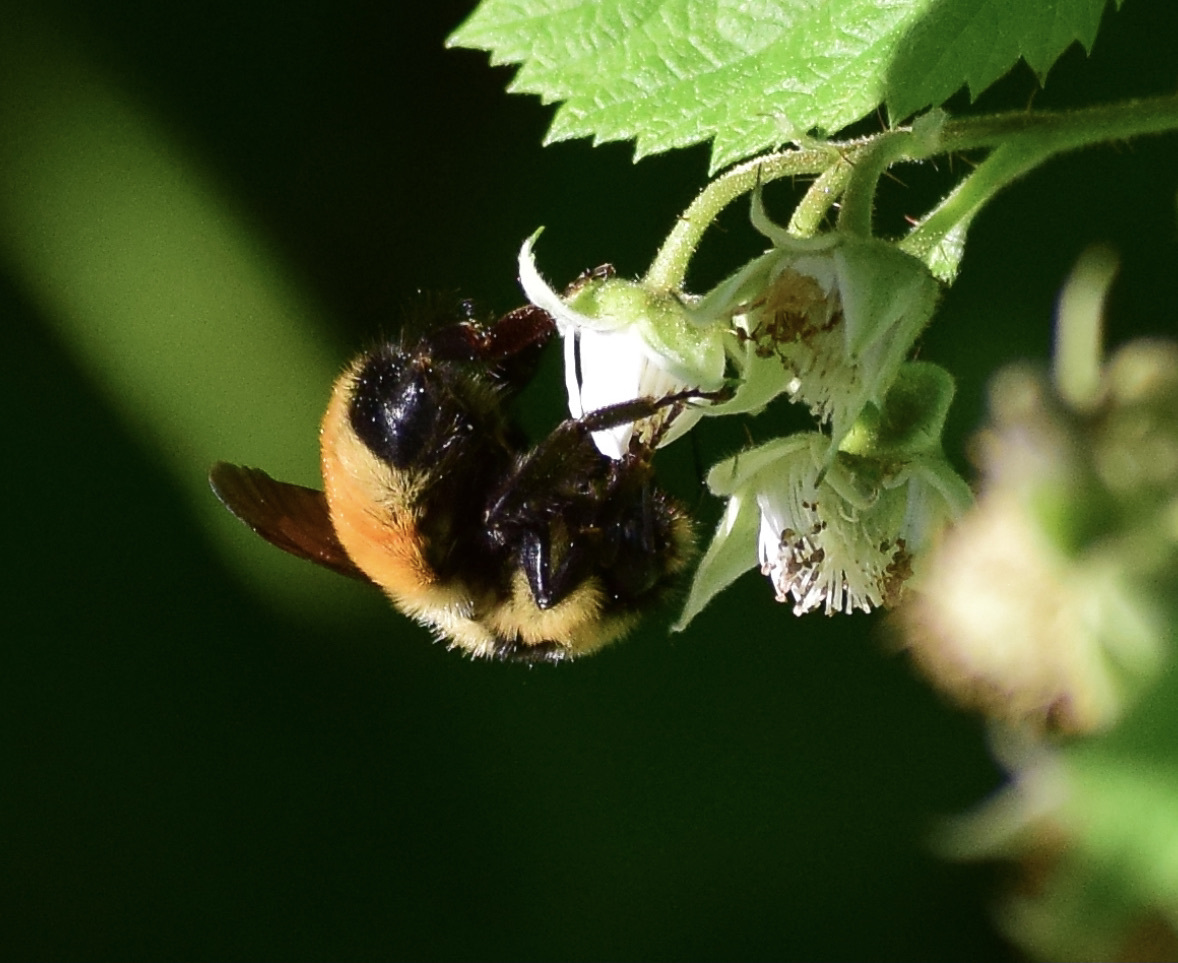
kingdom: Animalia
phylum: Arthropoda
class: Insecta
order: Hymenoptera
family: Apidae
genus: Bombus
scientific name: Bombus ternarius
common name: Tri-colored bumble bee
